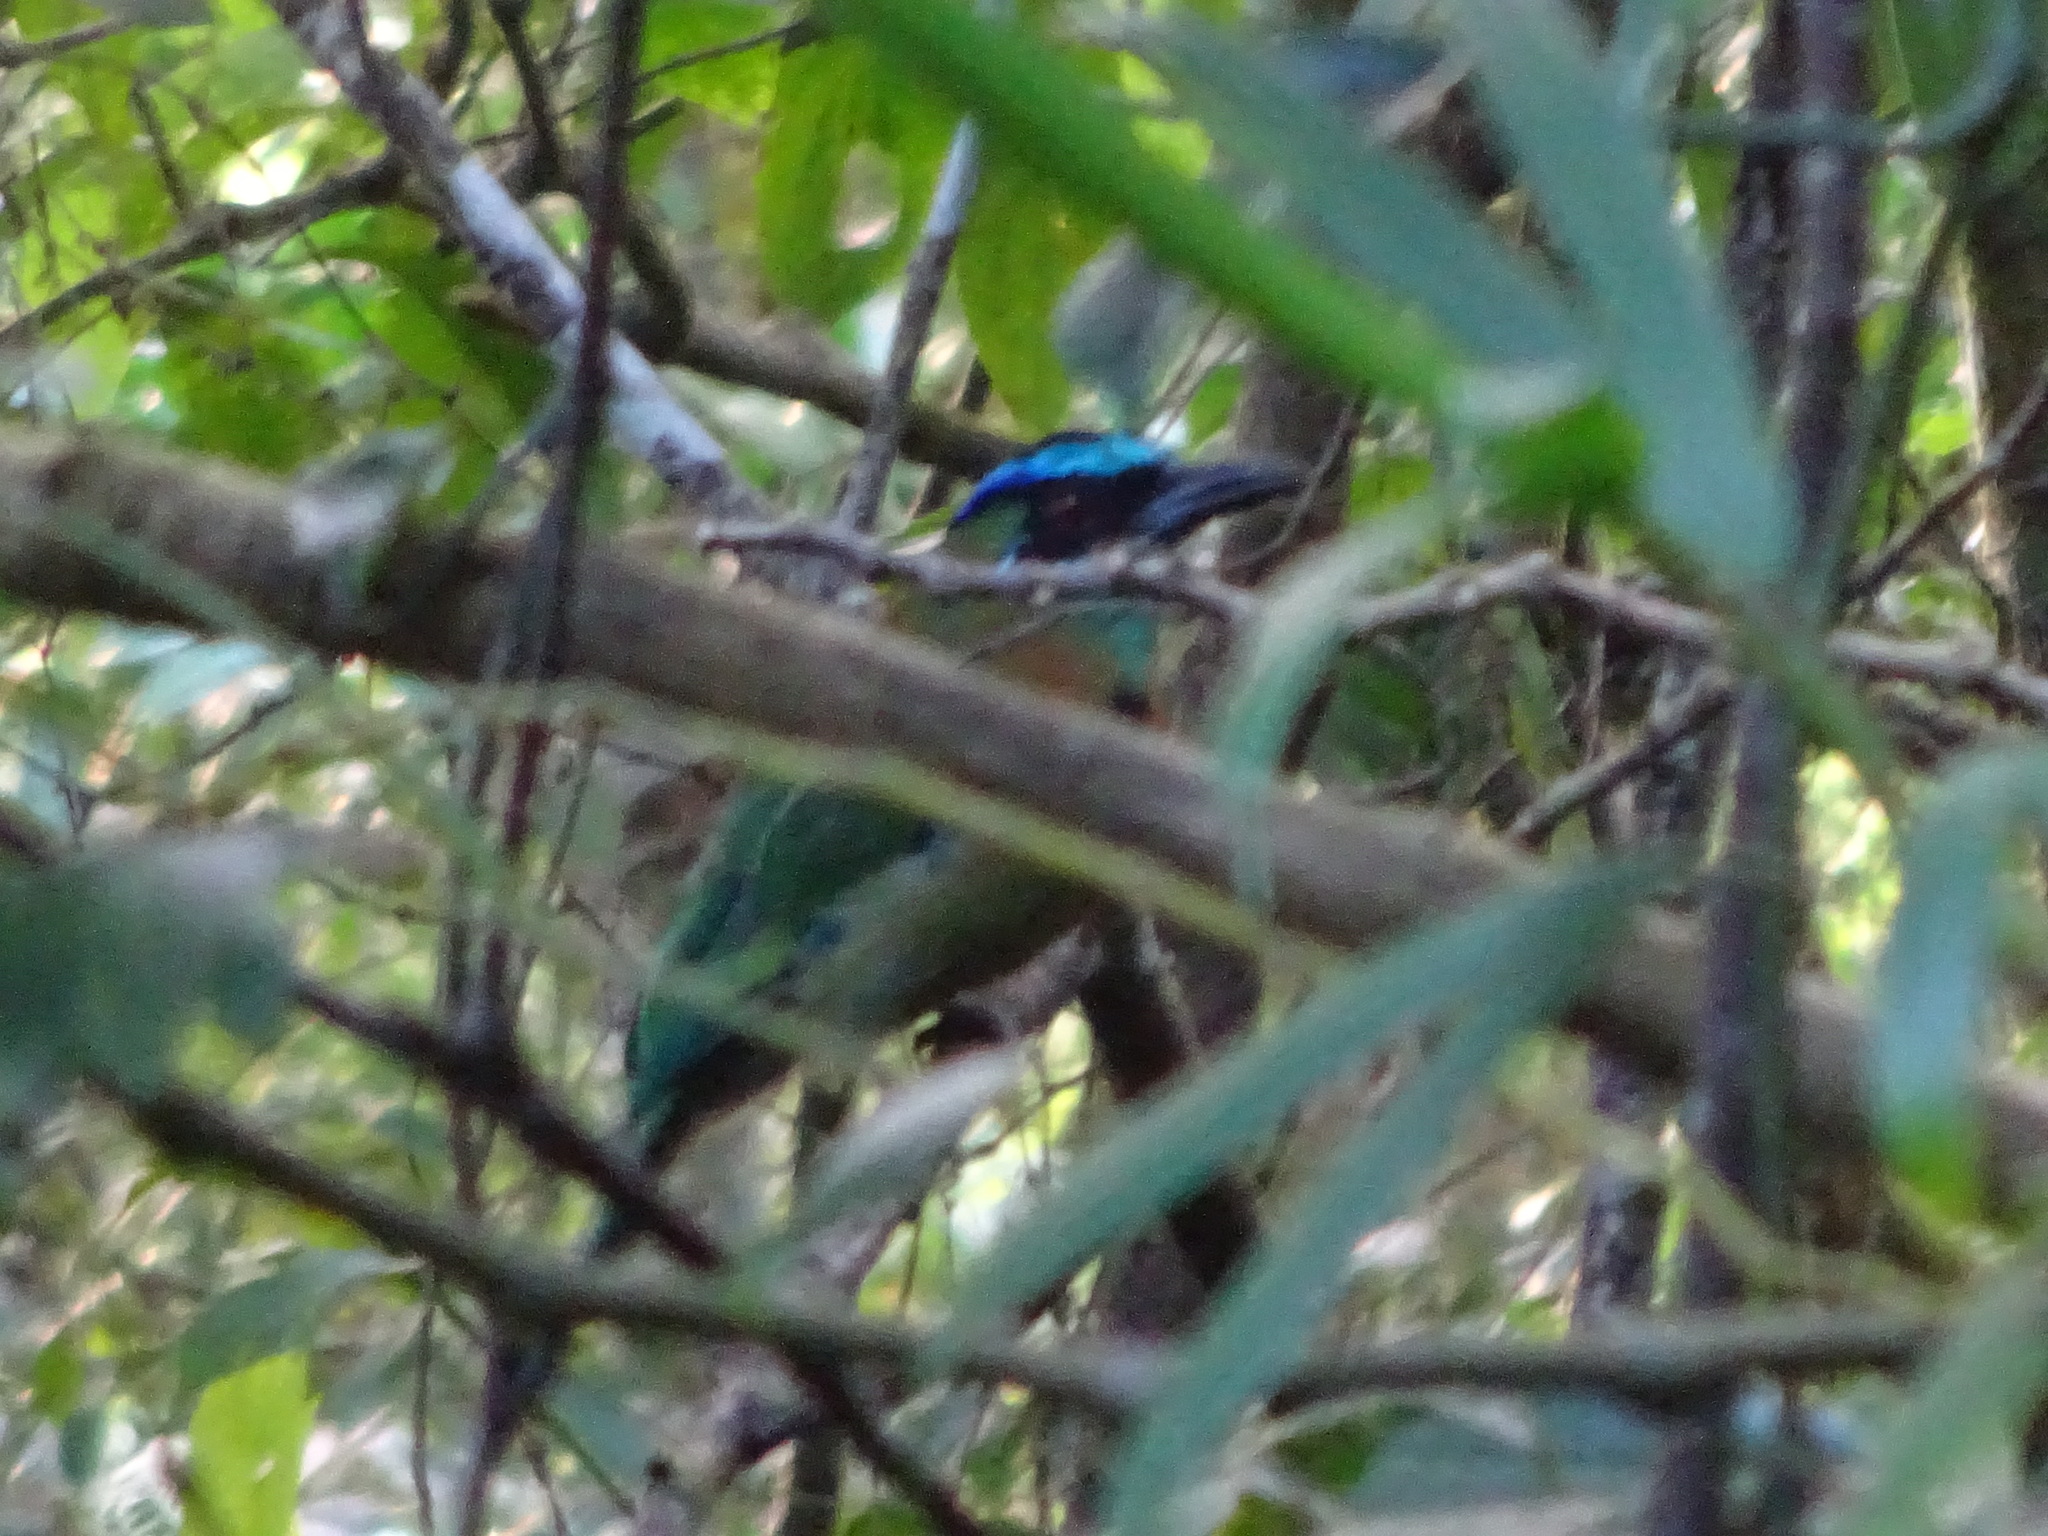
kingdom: Animalia
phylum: Chordata
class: Aves
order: Coraciiformes
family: Momotidae
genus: Momotus
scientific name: Momotus lessonii
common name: Lesson's motmot
